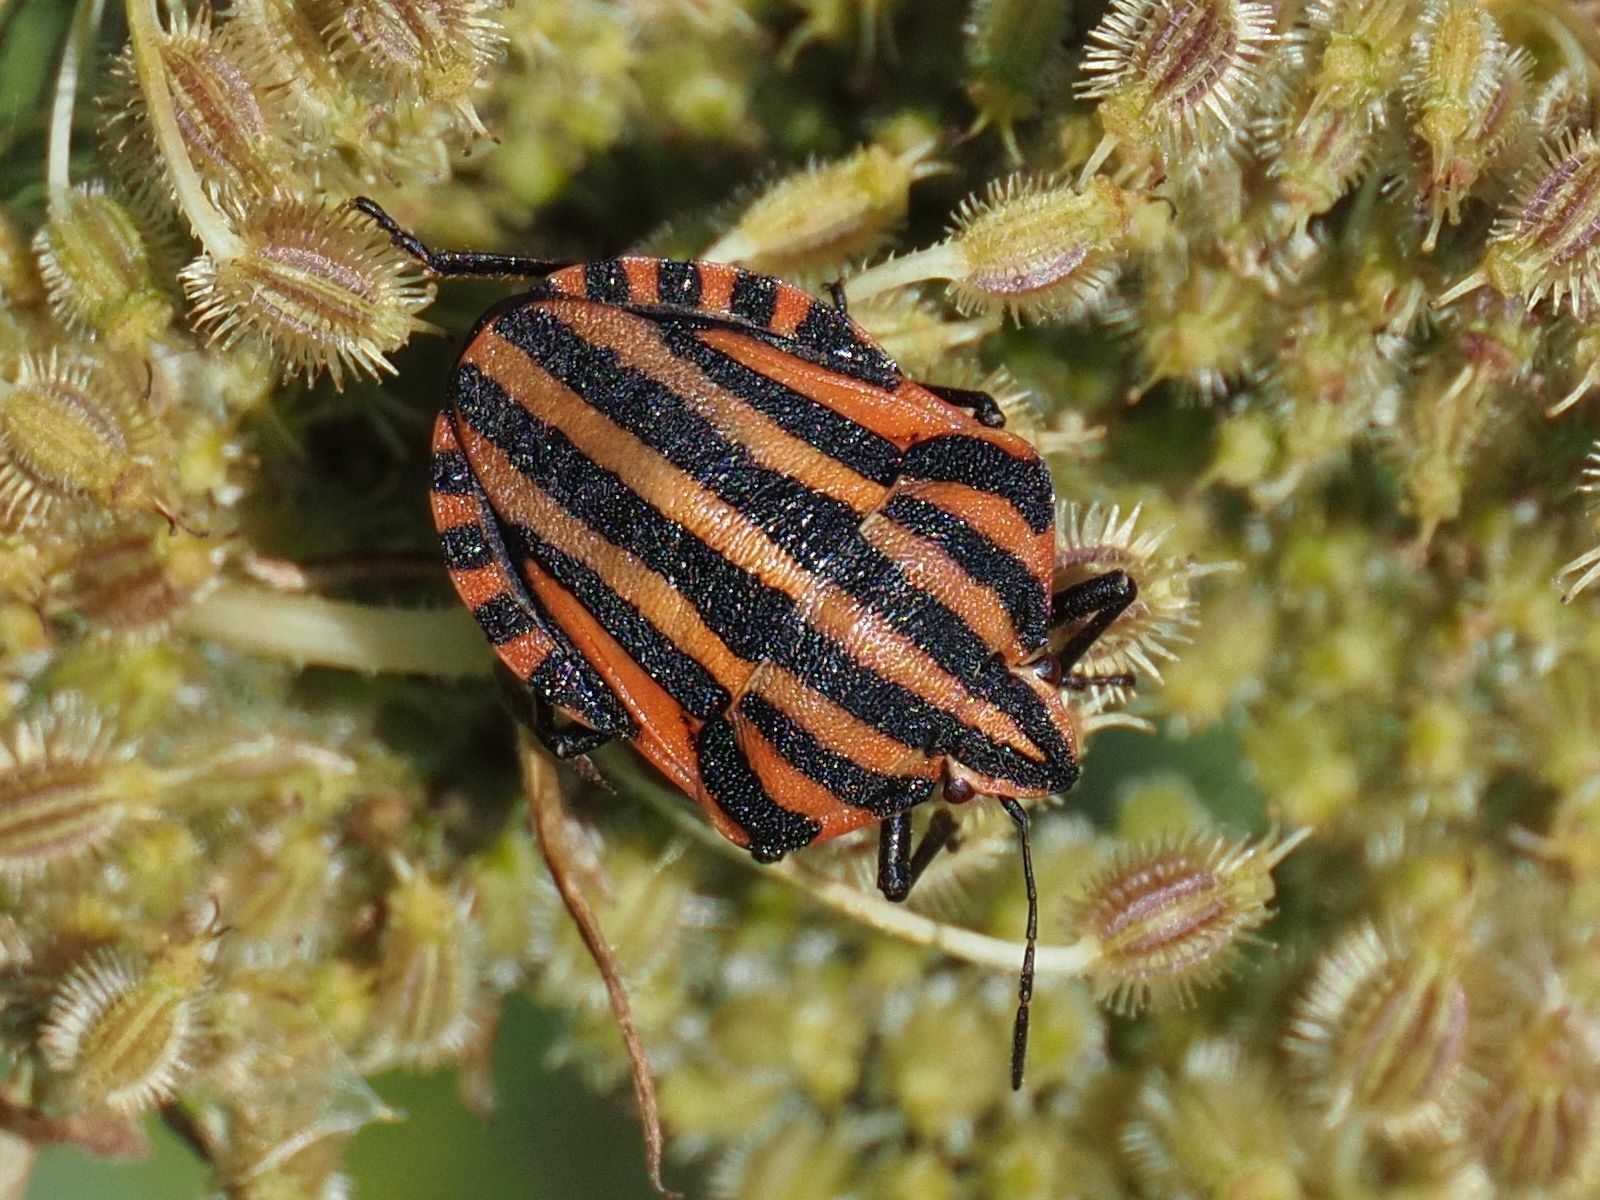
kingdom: Animalia
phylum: Arthropoda
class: Insecta
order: Hemiptera
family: Pentatomidae
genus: Graphosoma
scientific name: Graphosoma italicum
